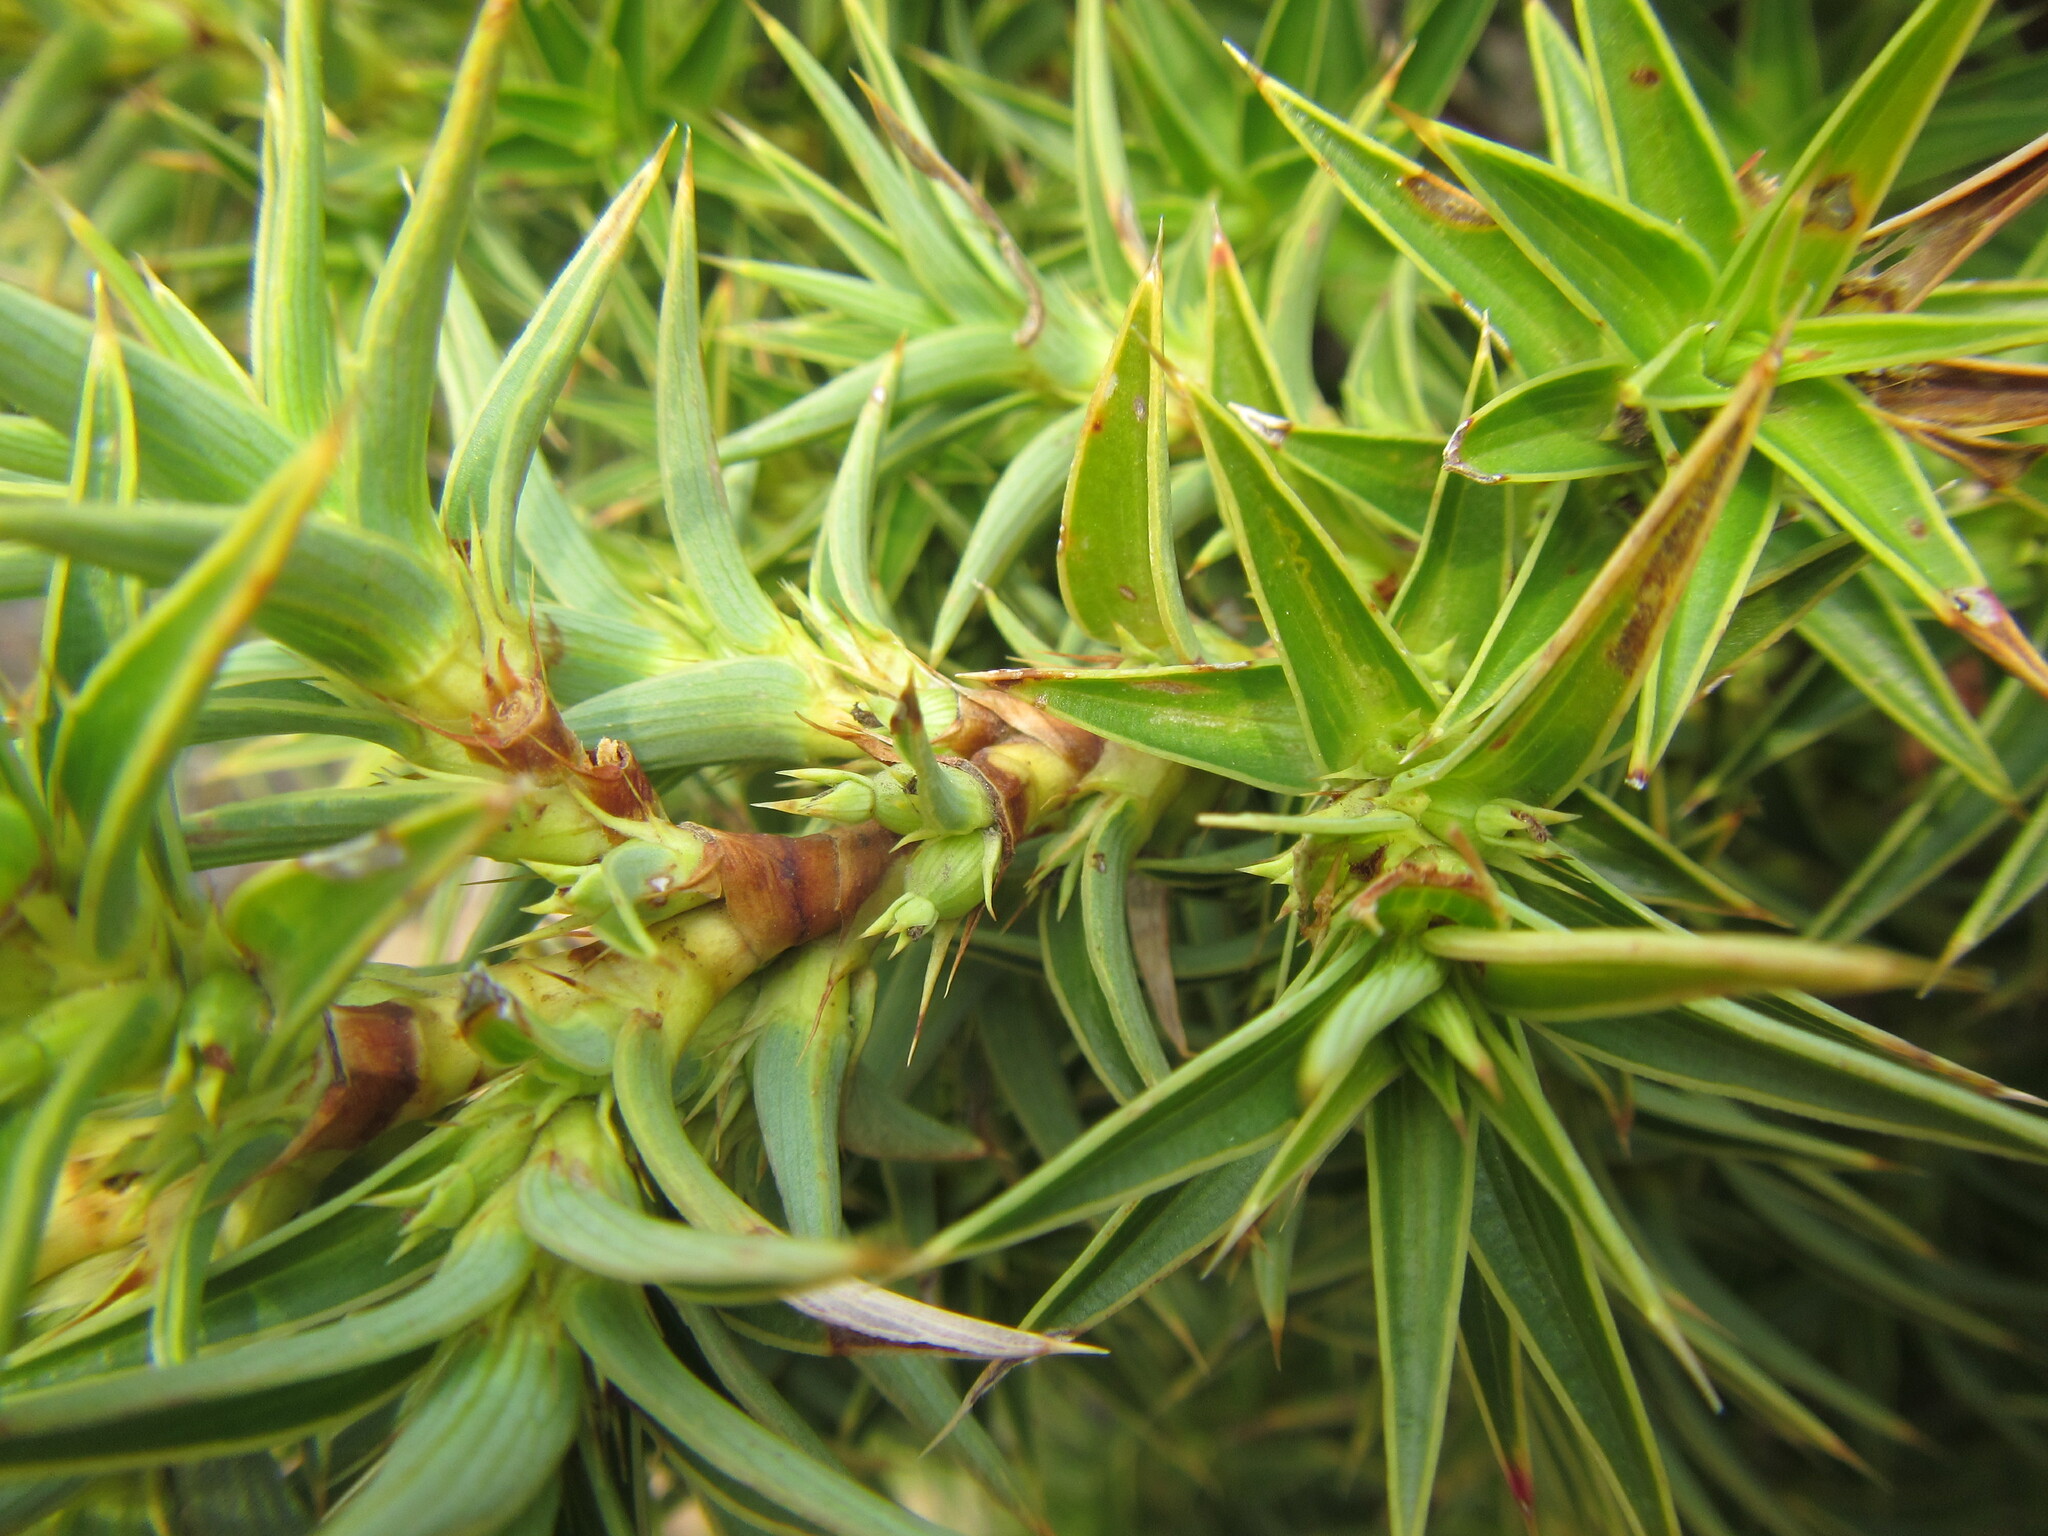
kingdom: Plantae
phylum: Tracheophyta
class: Magnoliopsida
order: Rosales
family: Rosaceae
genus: Cliffortia
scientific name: Cliffortia dregeana
